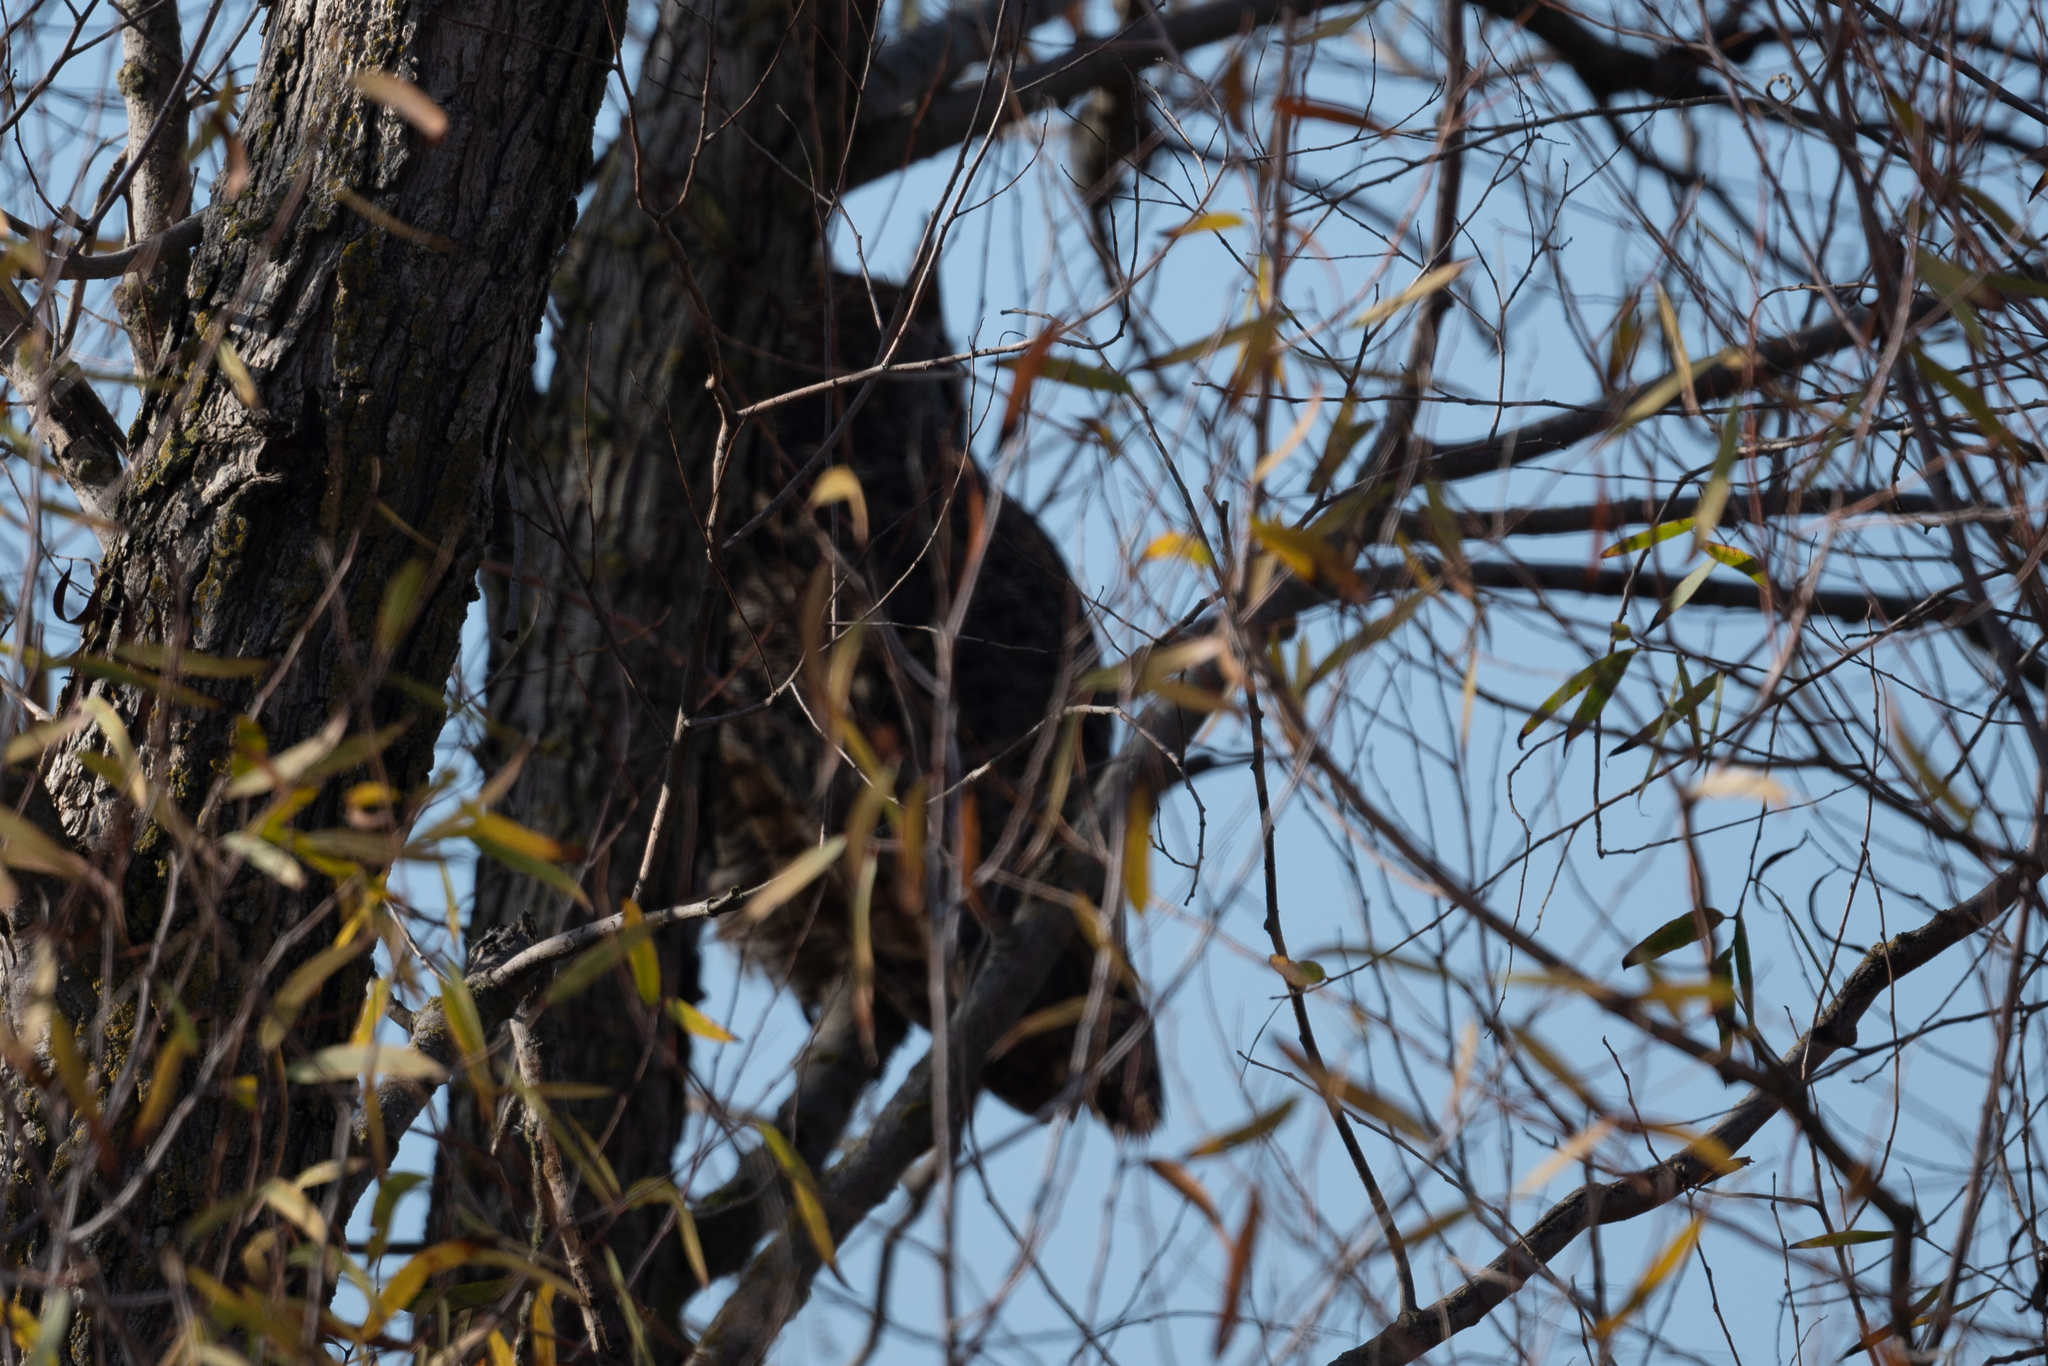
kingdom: Animalia
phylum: Chordata
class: Aves
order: Strigiformes
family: Strigidae
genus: Bubo
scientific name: Bubo virginianus
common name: Great horned owl
